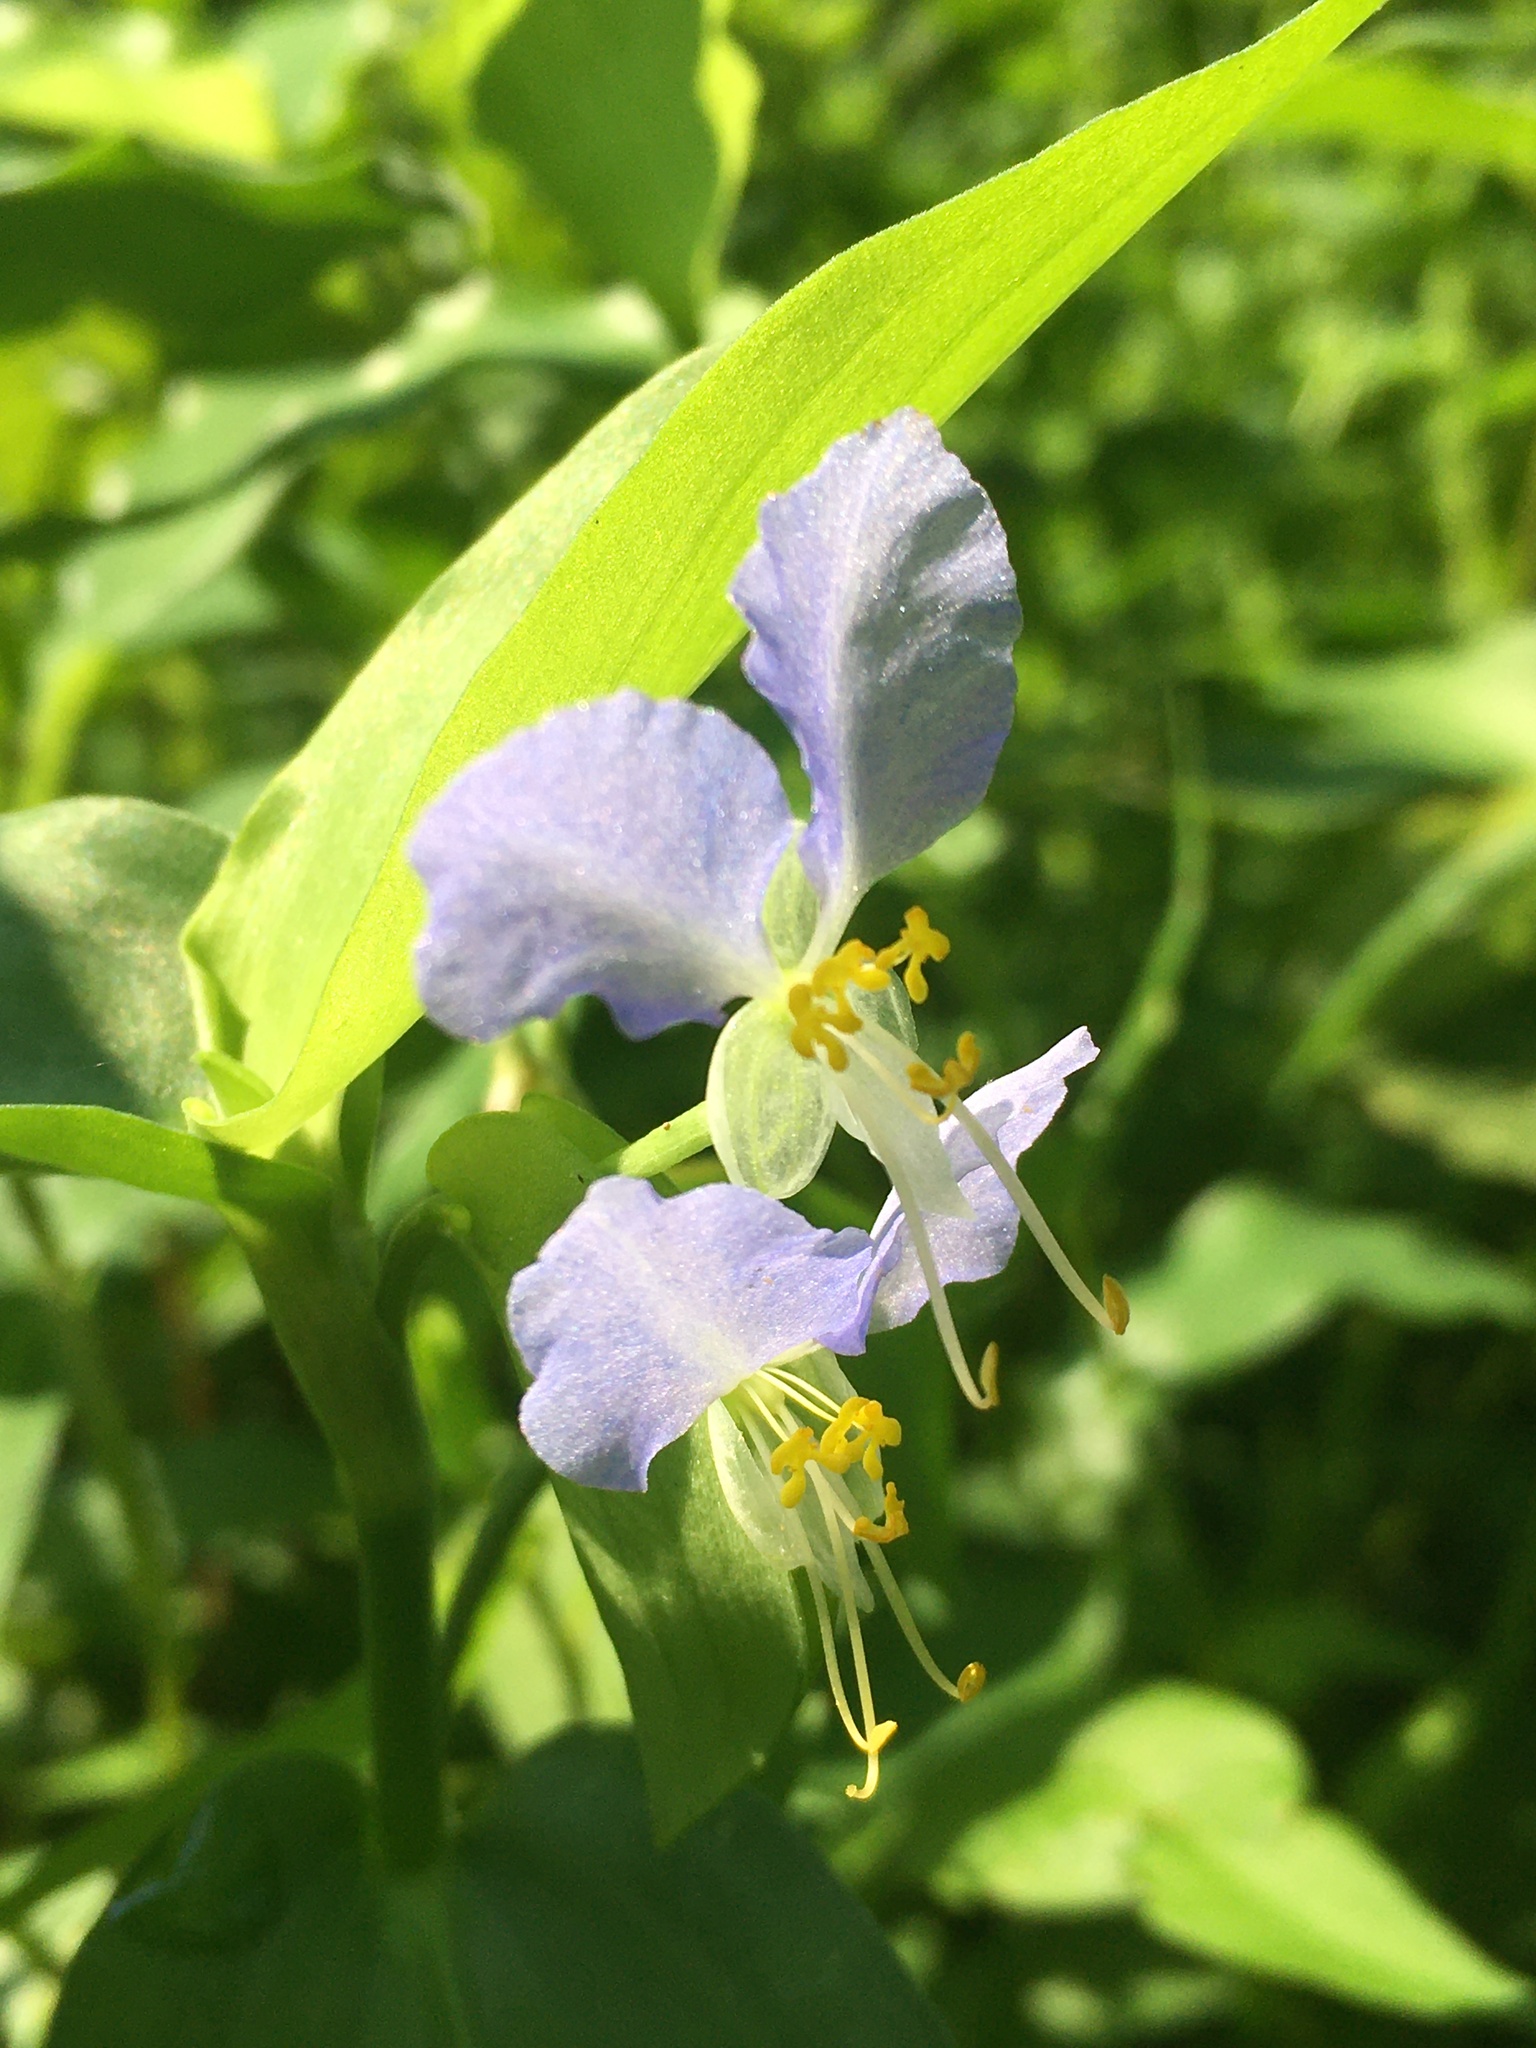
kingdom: Plantae
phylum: Tracheophyta
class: Liliopsida
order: Commelinales
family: Commelinaceae
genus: Commelina
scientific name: Commelina communis
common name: Asiatic dayflower
